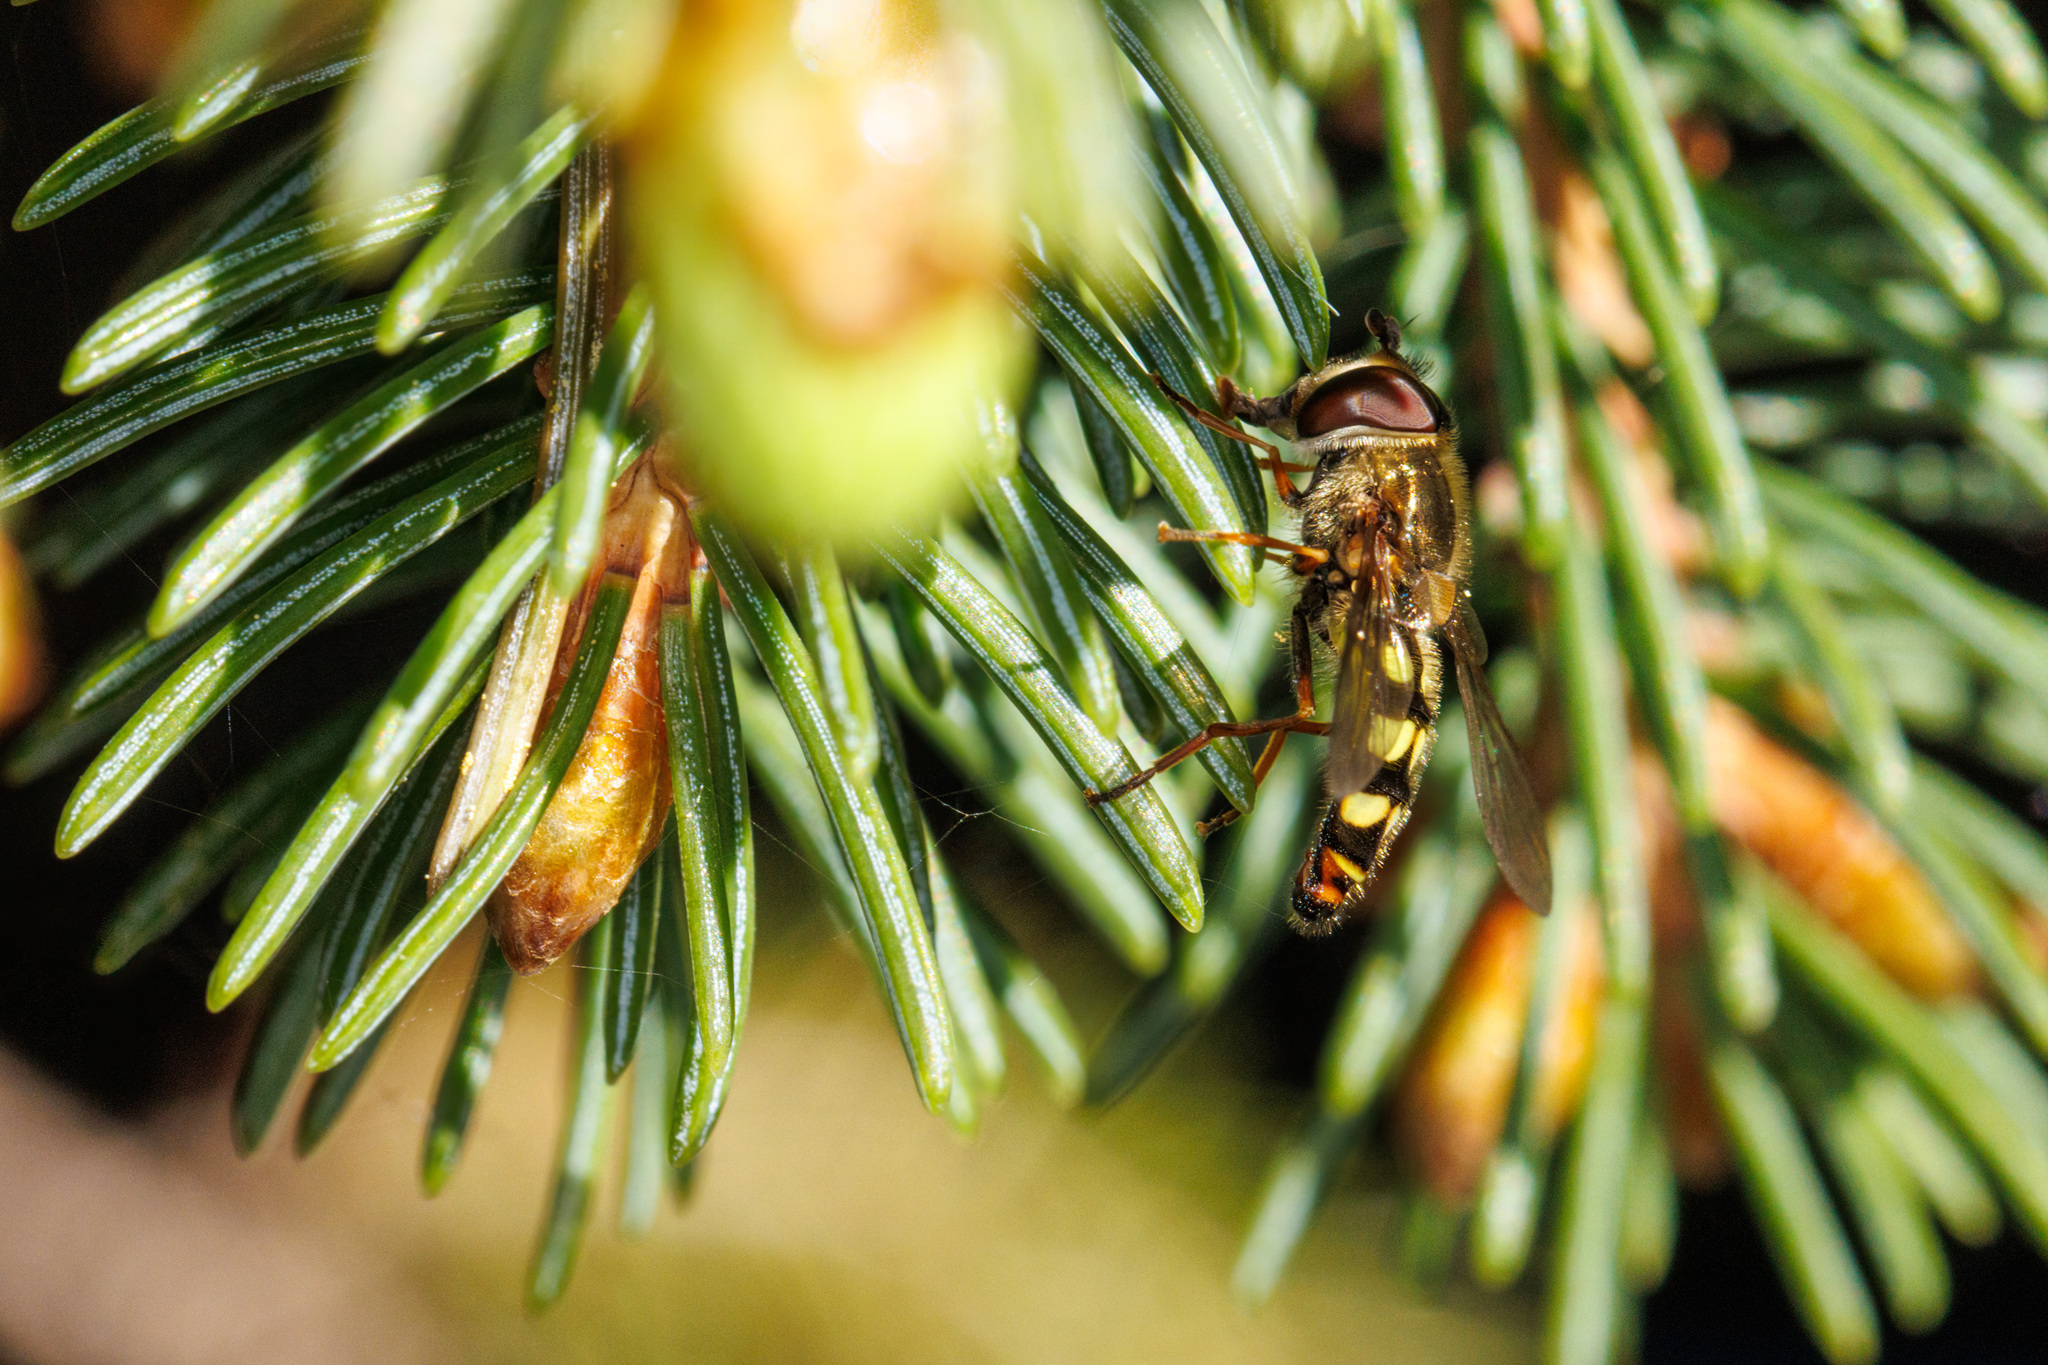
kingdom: Animalia
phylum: Arthropoda
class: Insecta
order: Diptera
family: Syrphidae
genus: Eupeodes
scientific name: Eupeodes fumipennis
